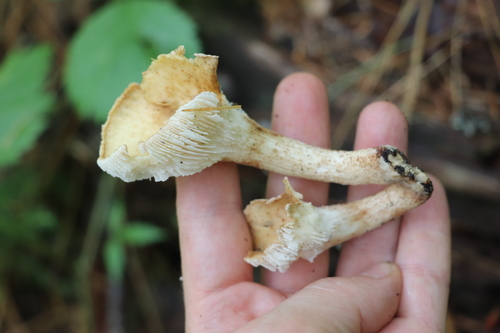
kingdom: Fungi
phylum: Basidiomycota
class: Agaricomycetes
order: Gloeophyllales
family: Gloeophyllaceae
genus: Neolentinus
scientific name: Neolentinus lepideus
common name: Scaly sawgill
